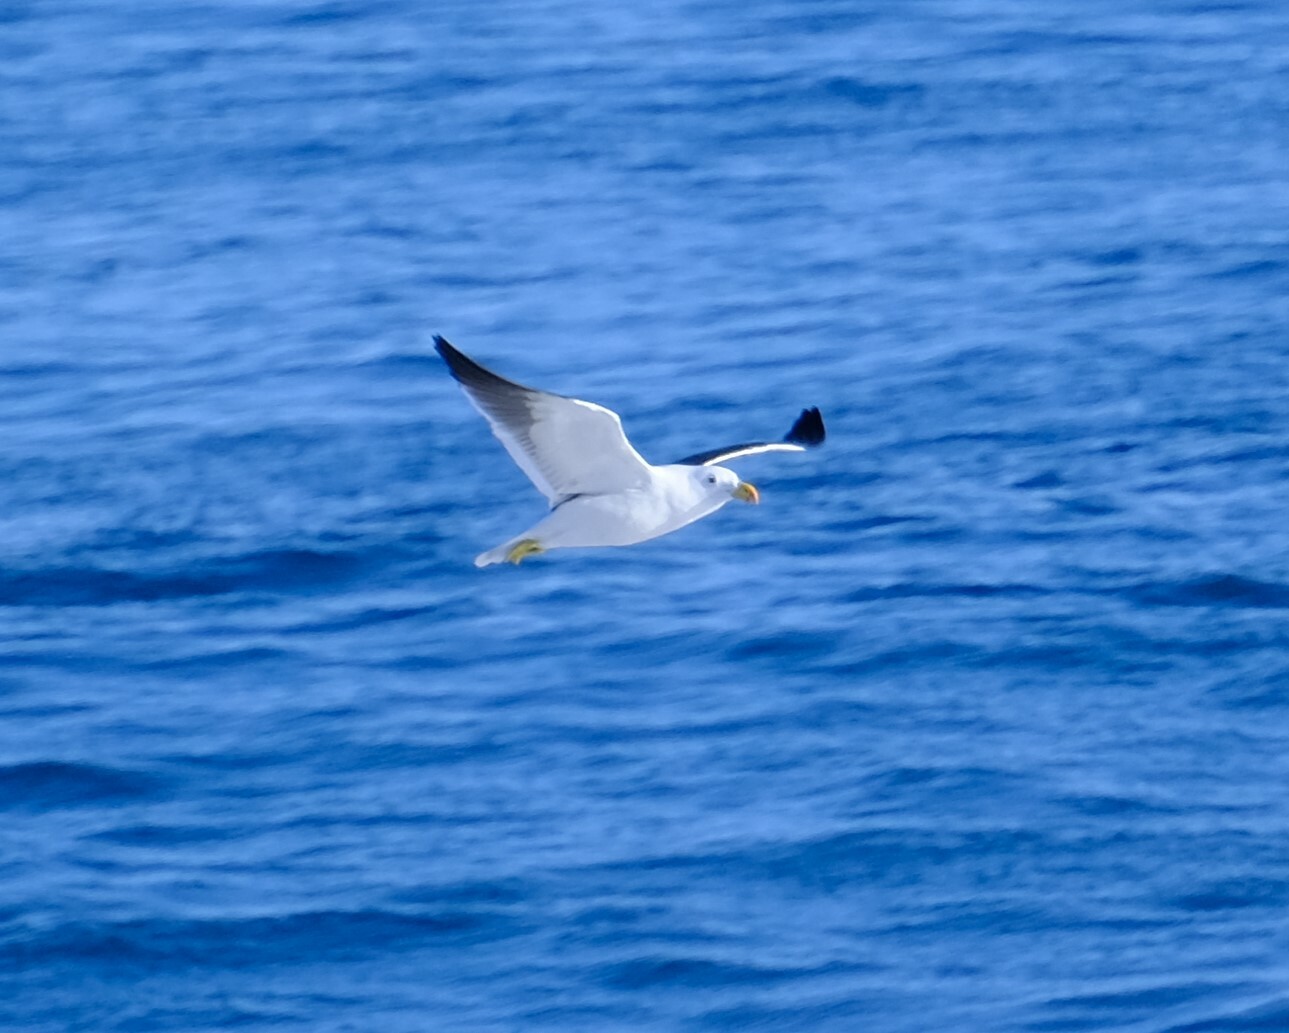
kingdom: Animalia
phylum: Chordata
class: Aves
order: Charadriiformes
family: Laridae
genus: Larus
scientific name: Larus pacificus
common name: Pacific gull
